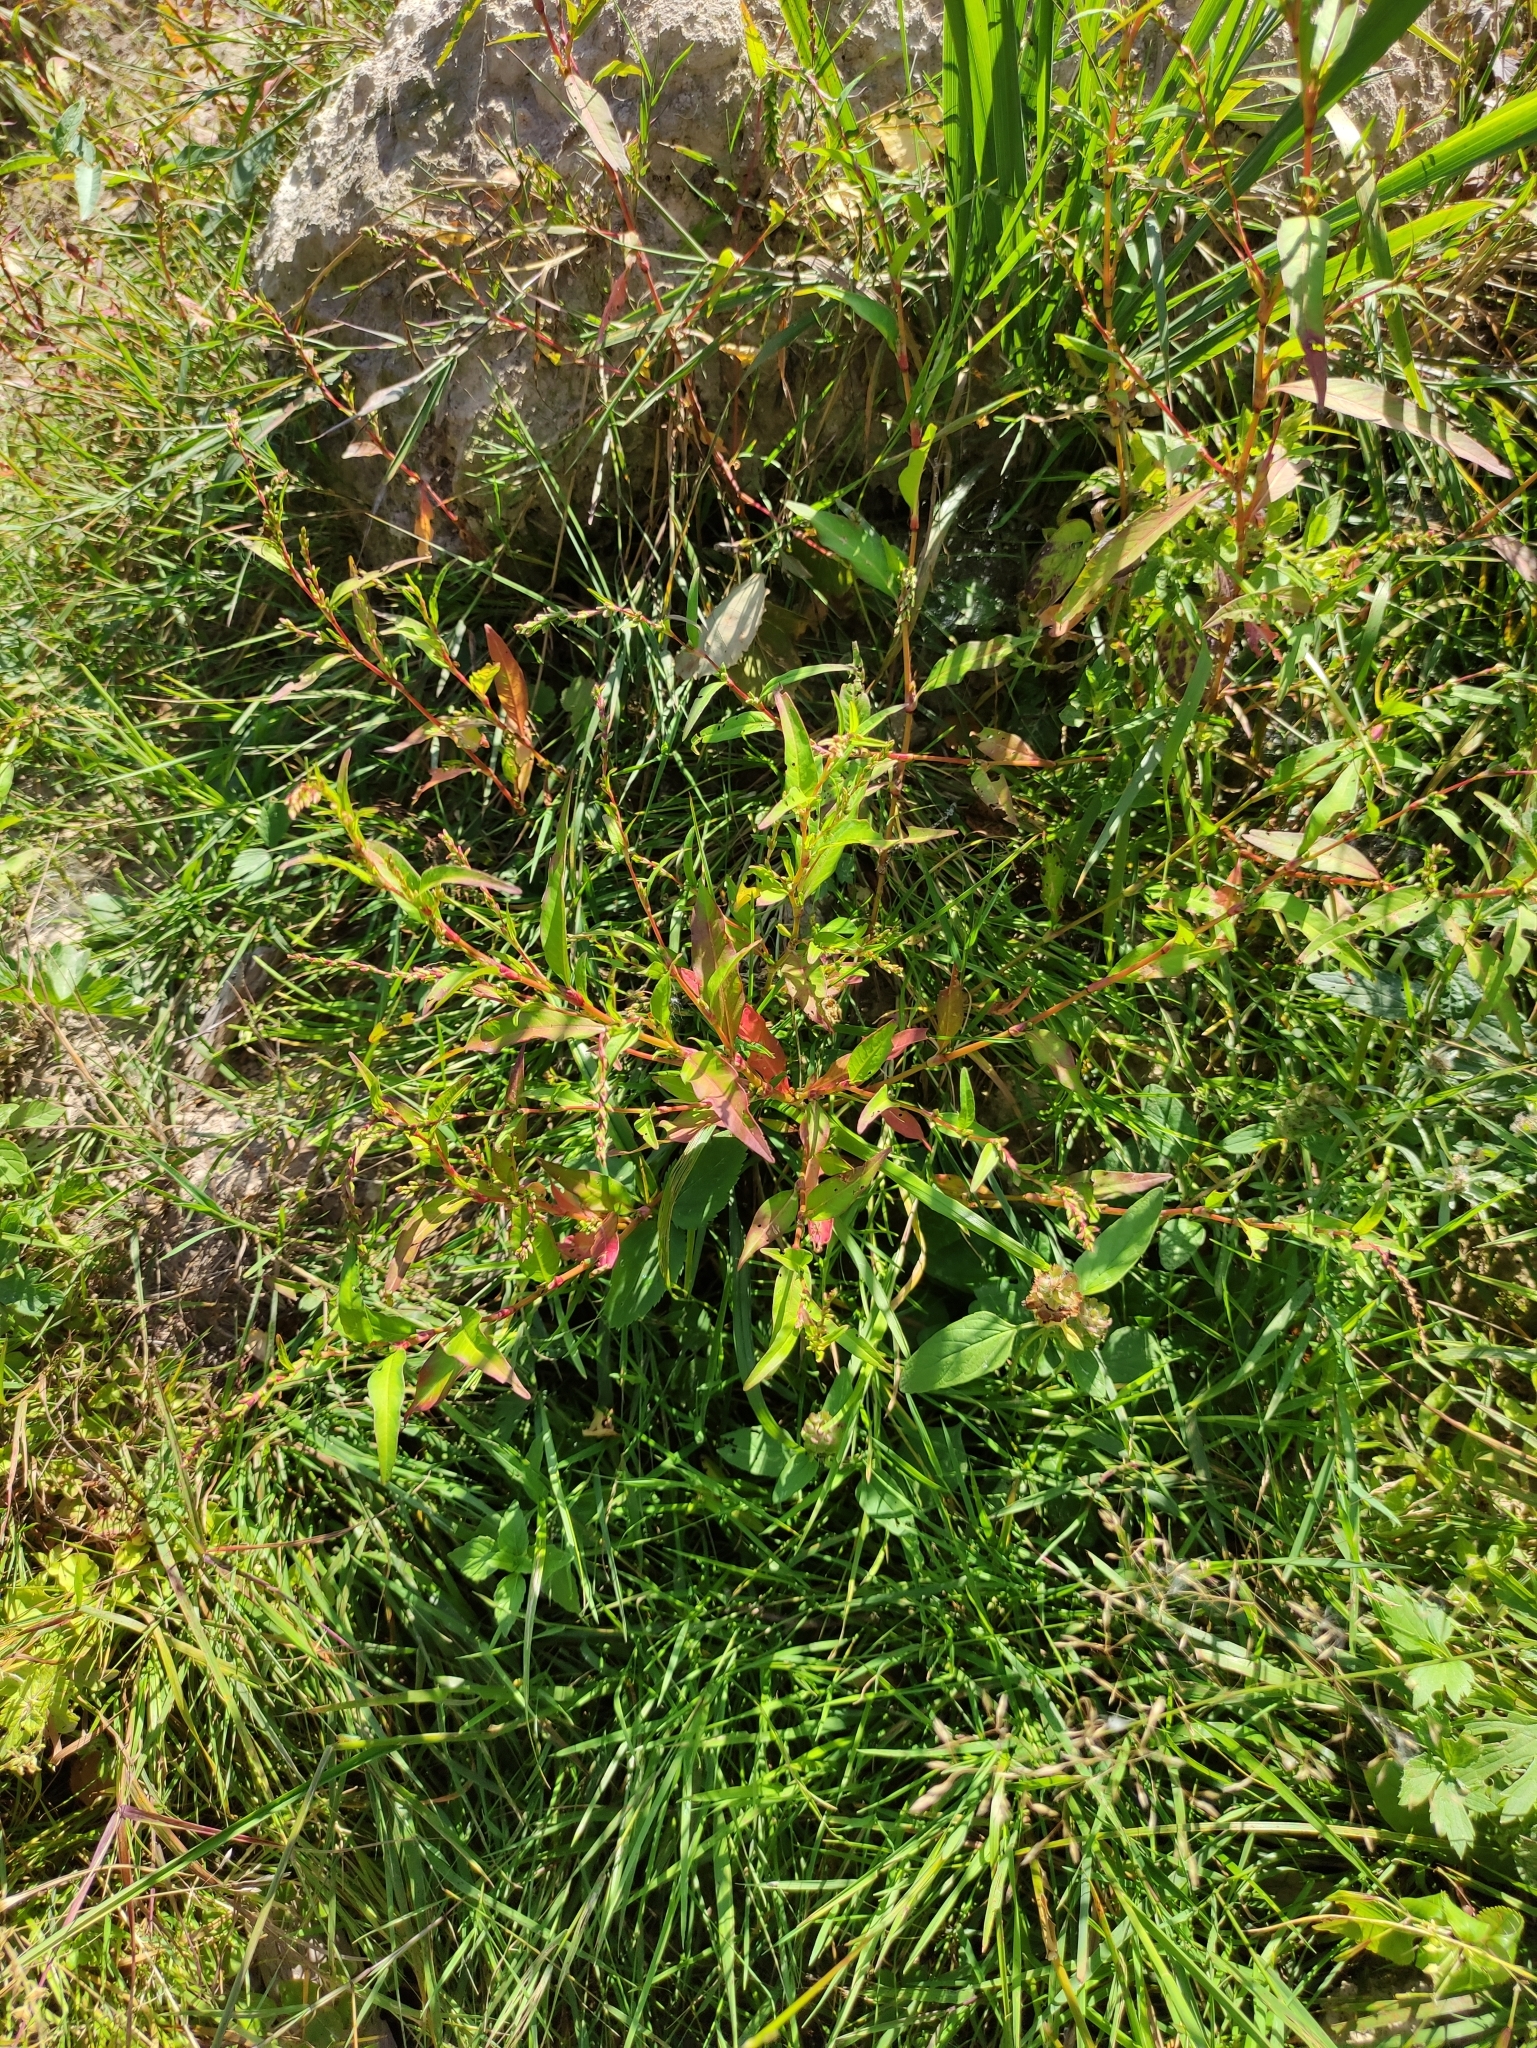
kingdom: Plantae
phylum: Tracheophyta
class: Magnoliopsida
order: Caryophyllales
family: Polygonaceae
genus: Persicaria
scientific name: Persicaria hydropiper
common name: Water-pepper
